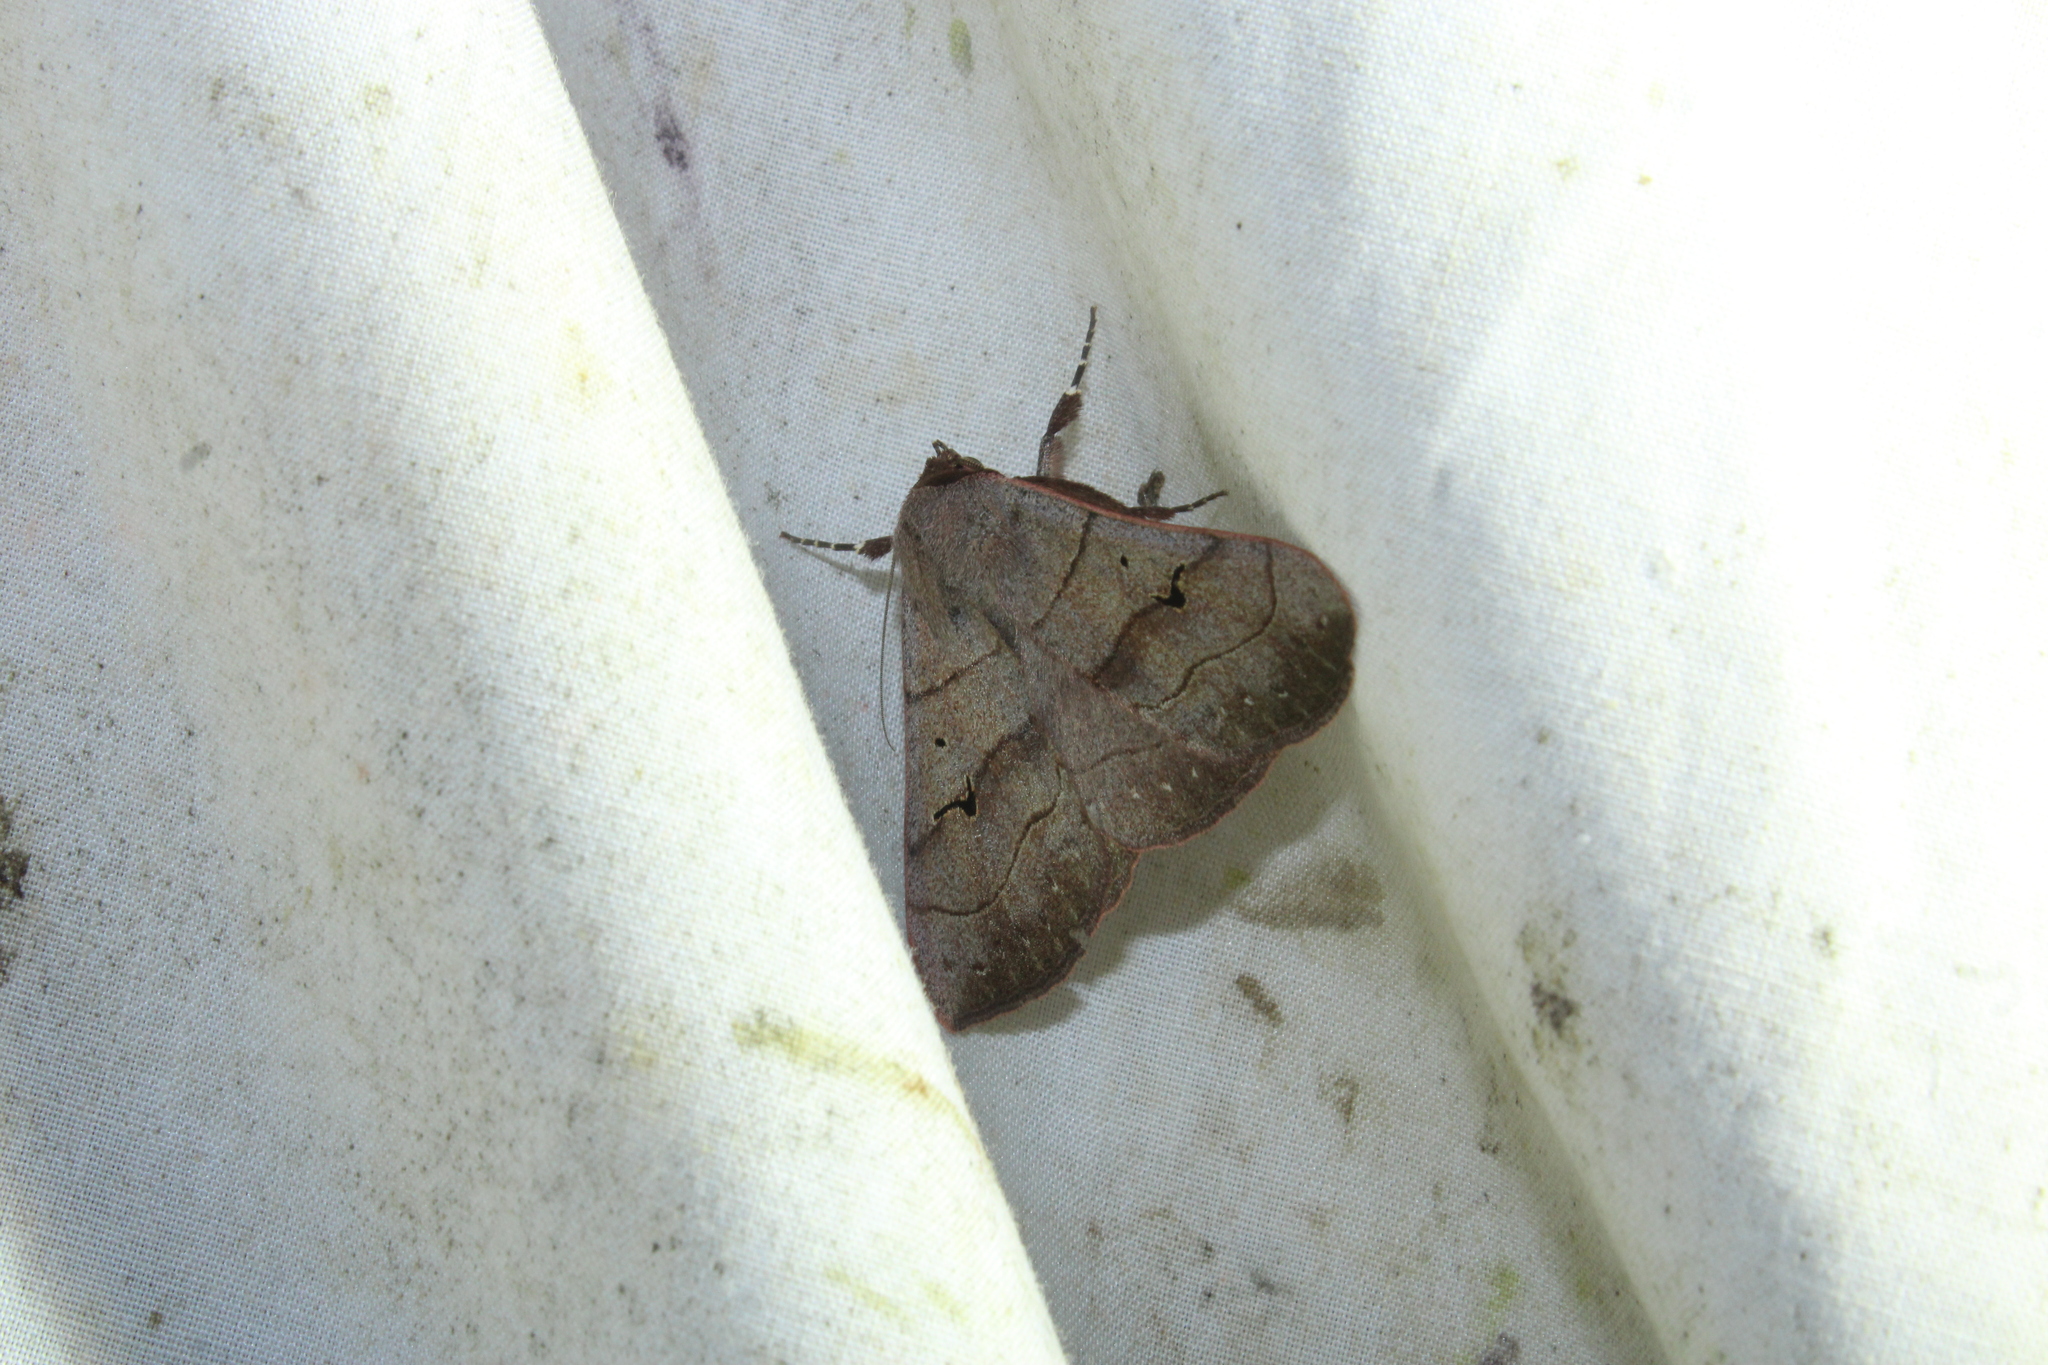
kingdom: Animalia
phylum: Arthropoda
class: Insecta
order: Lepidoptera
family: Erebidae
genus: Panopoda
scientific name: Panopoda carneicosta
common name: Brown panopoda moth
